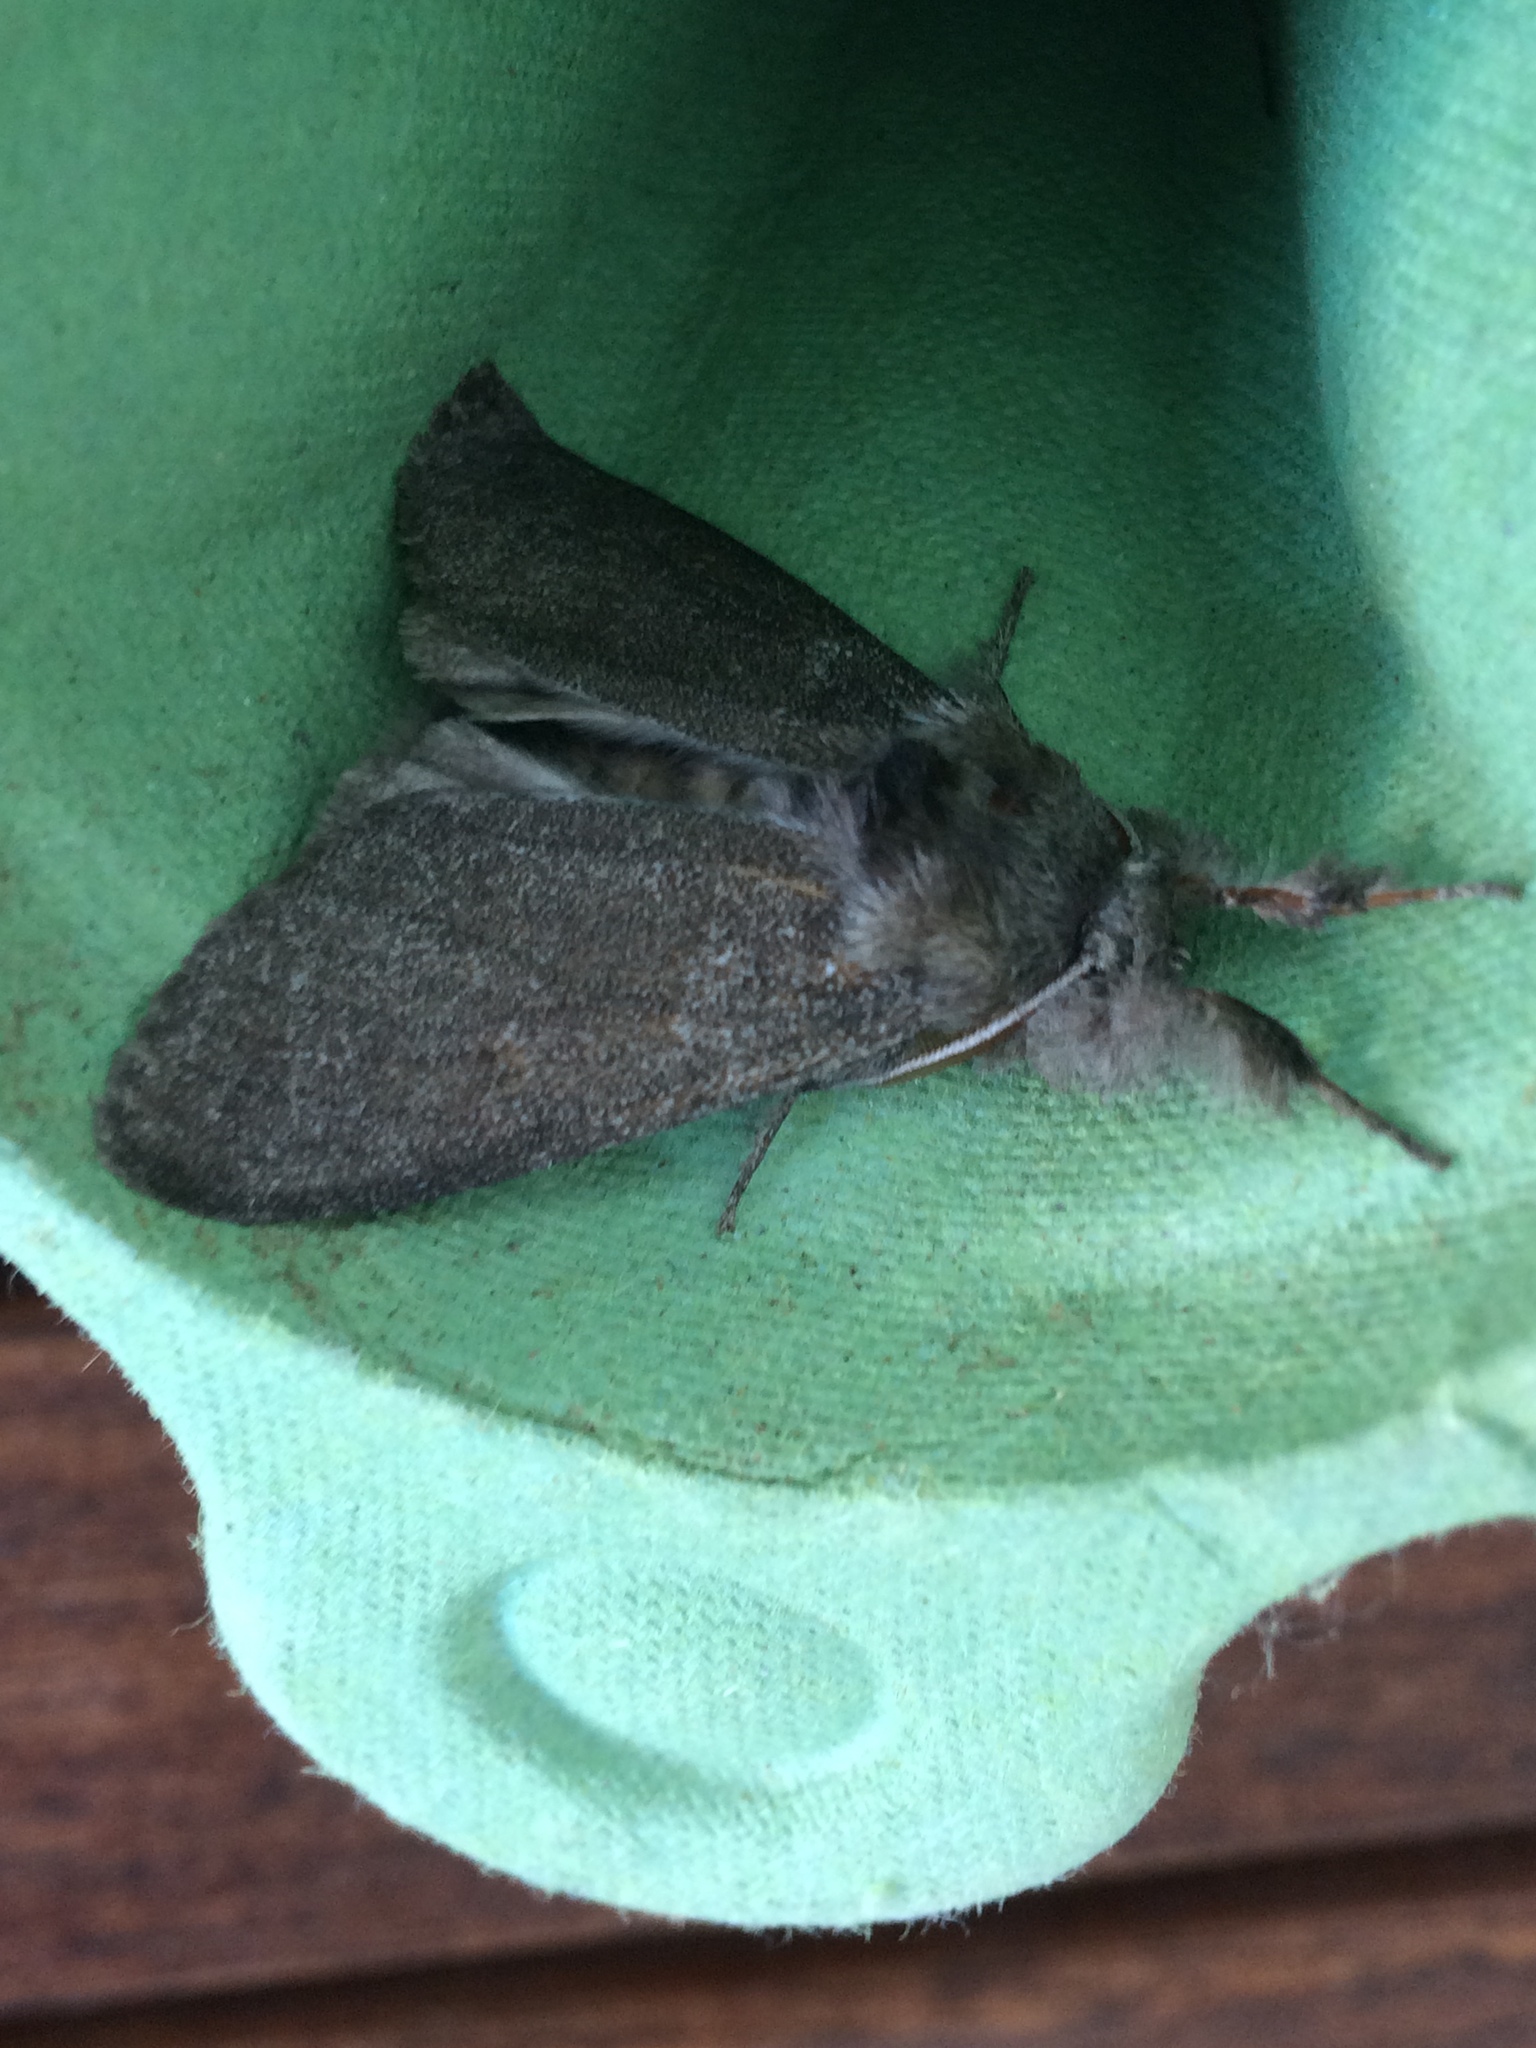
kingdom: Animalia
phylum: Arthropoda
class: Insecta
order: Lepidoptera
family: Erebidae
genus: Calliteara
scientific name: Calliteara pudibunda
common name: Pale tussock
